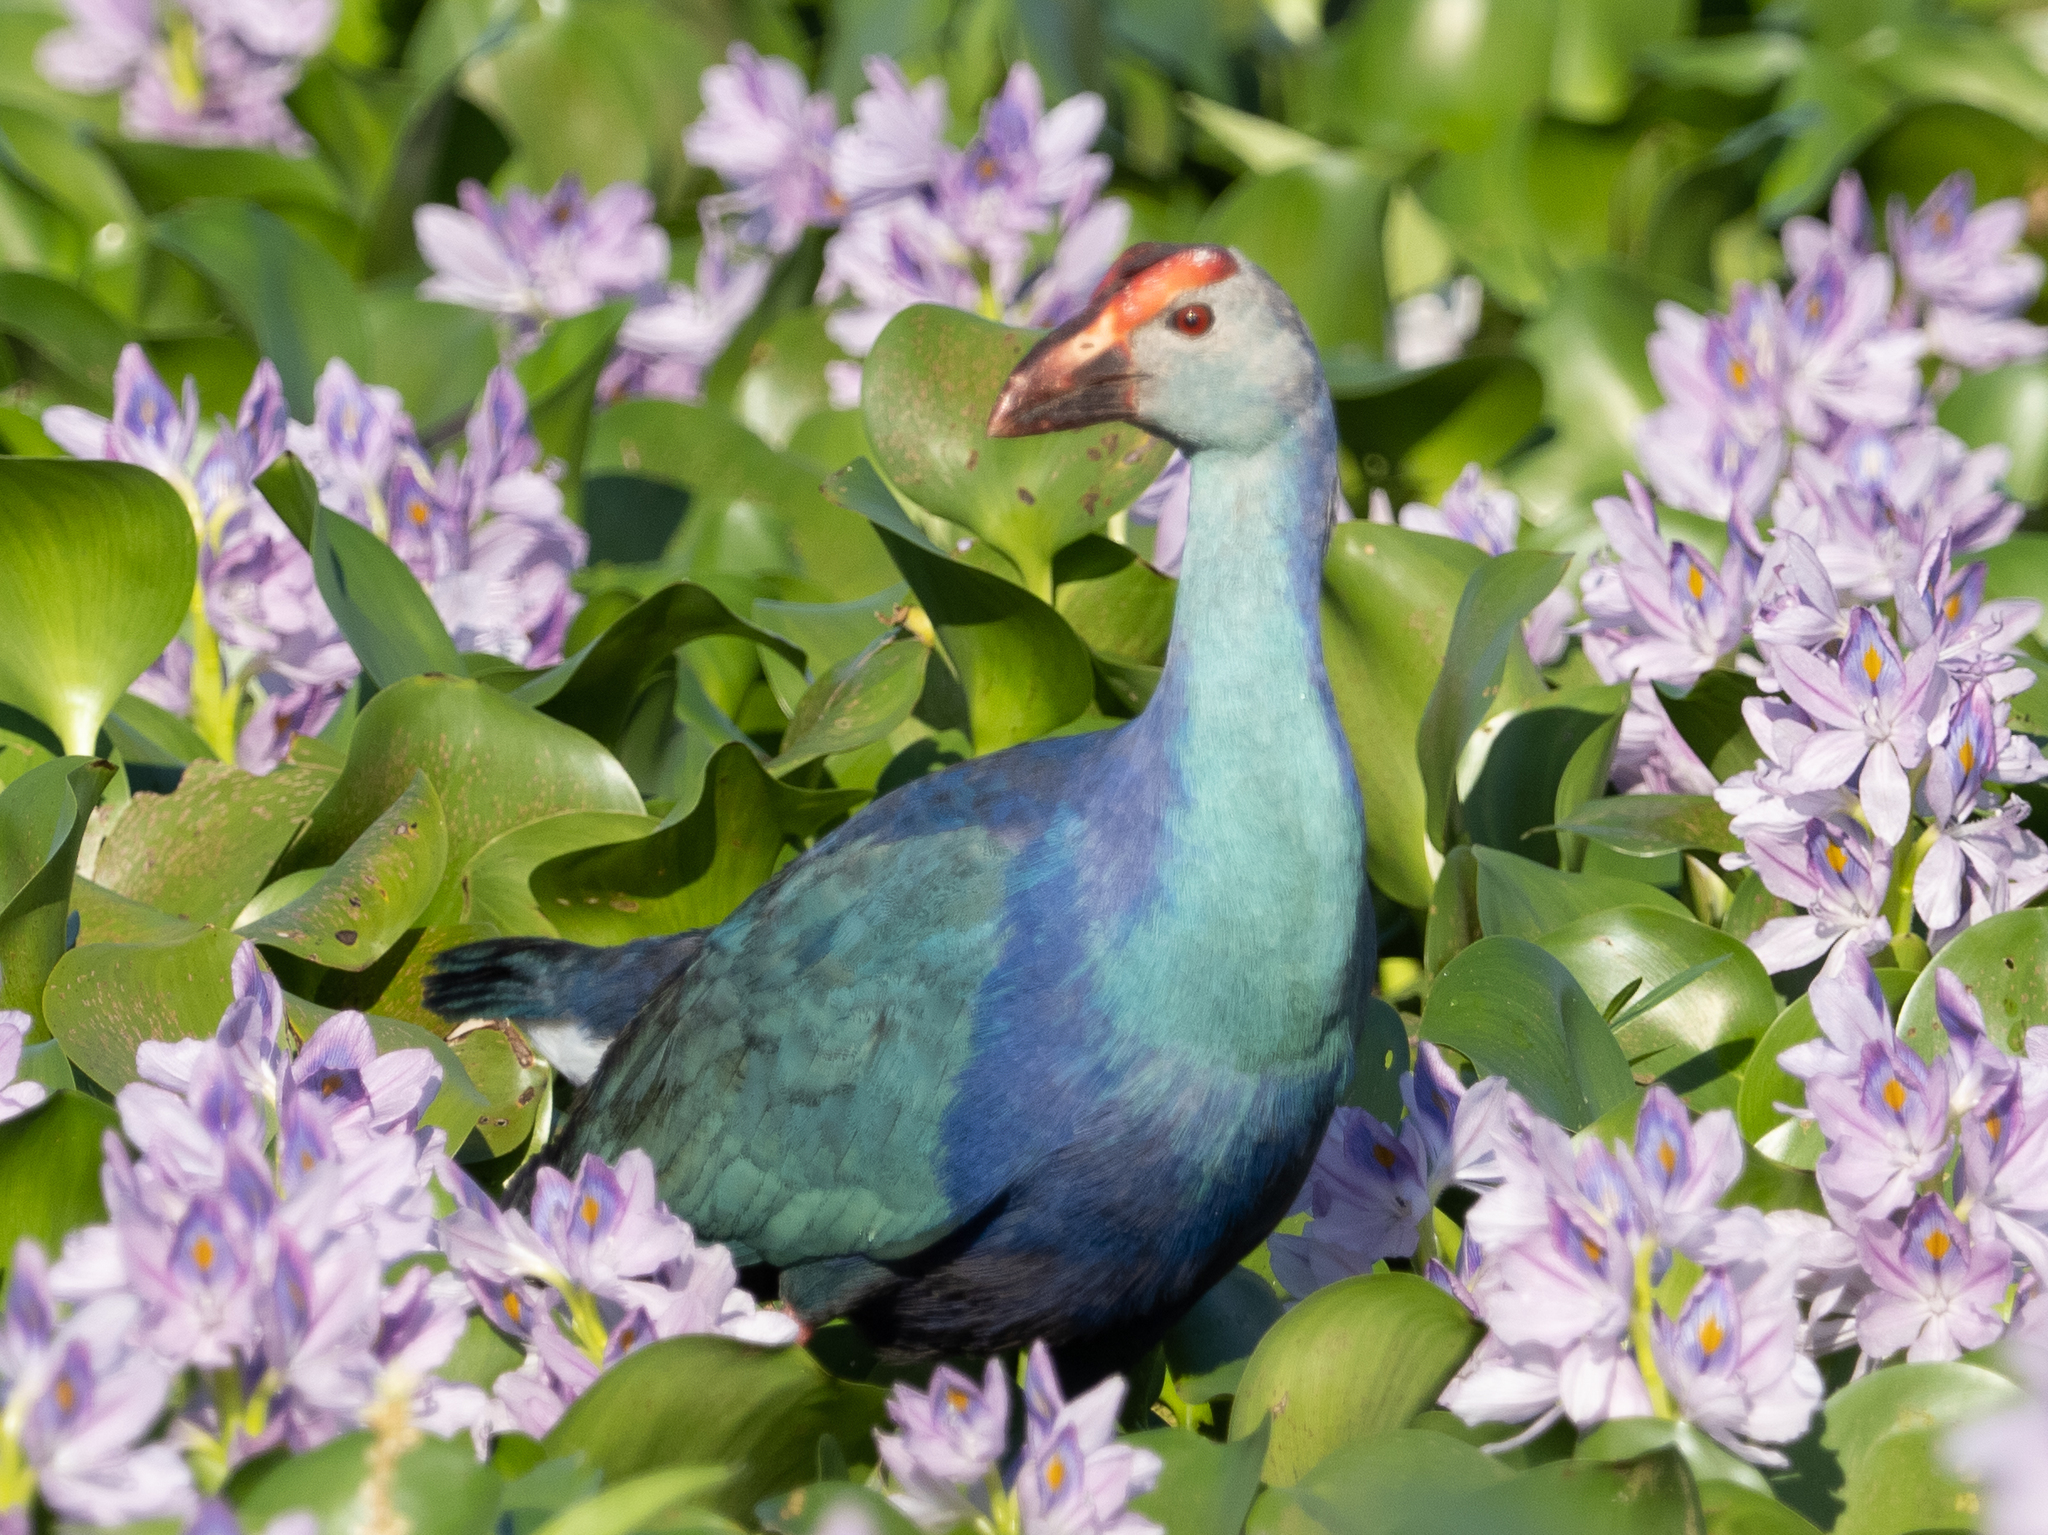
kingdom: Animalia
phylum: Chordata
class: Aves
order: Gruiformes
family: Rallidae
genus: Porphyrio
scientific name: Porphyrio porphyrio
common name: Purple swamphen
